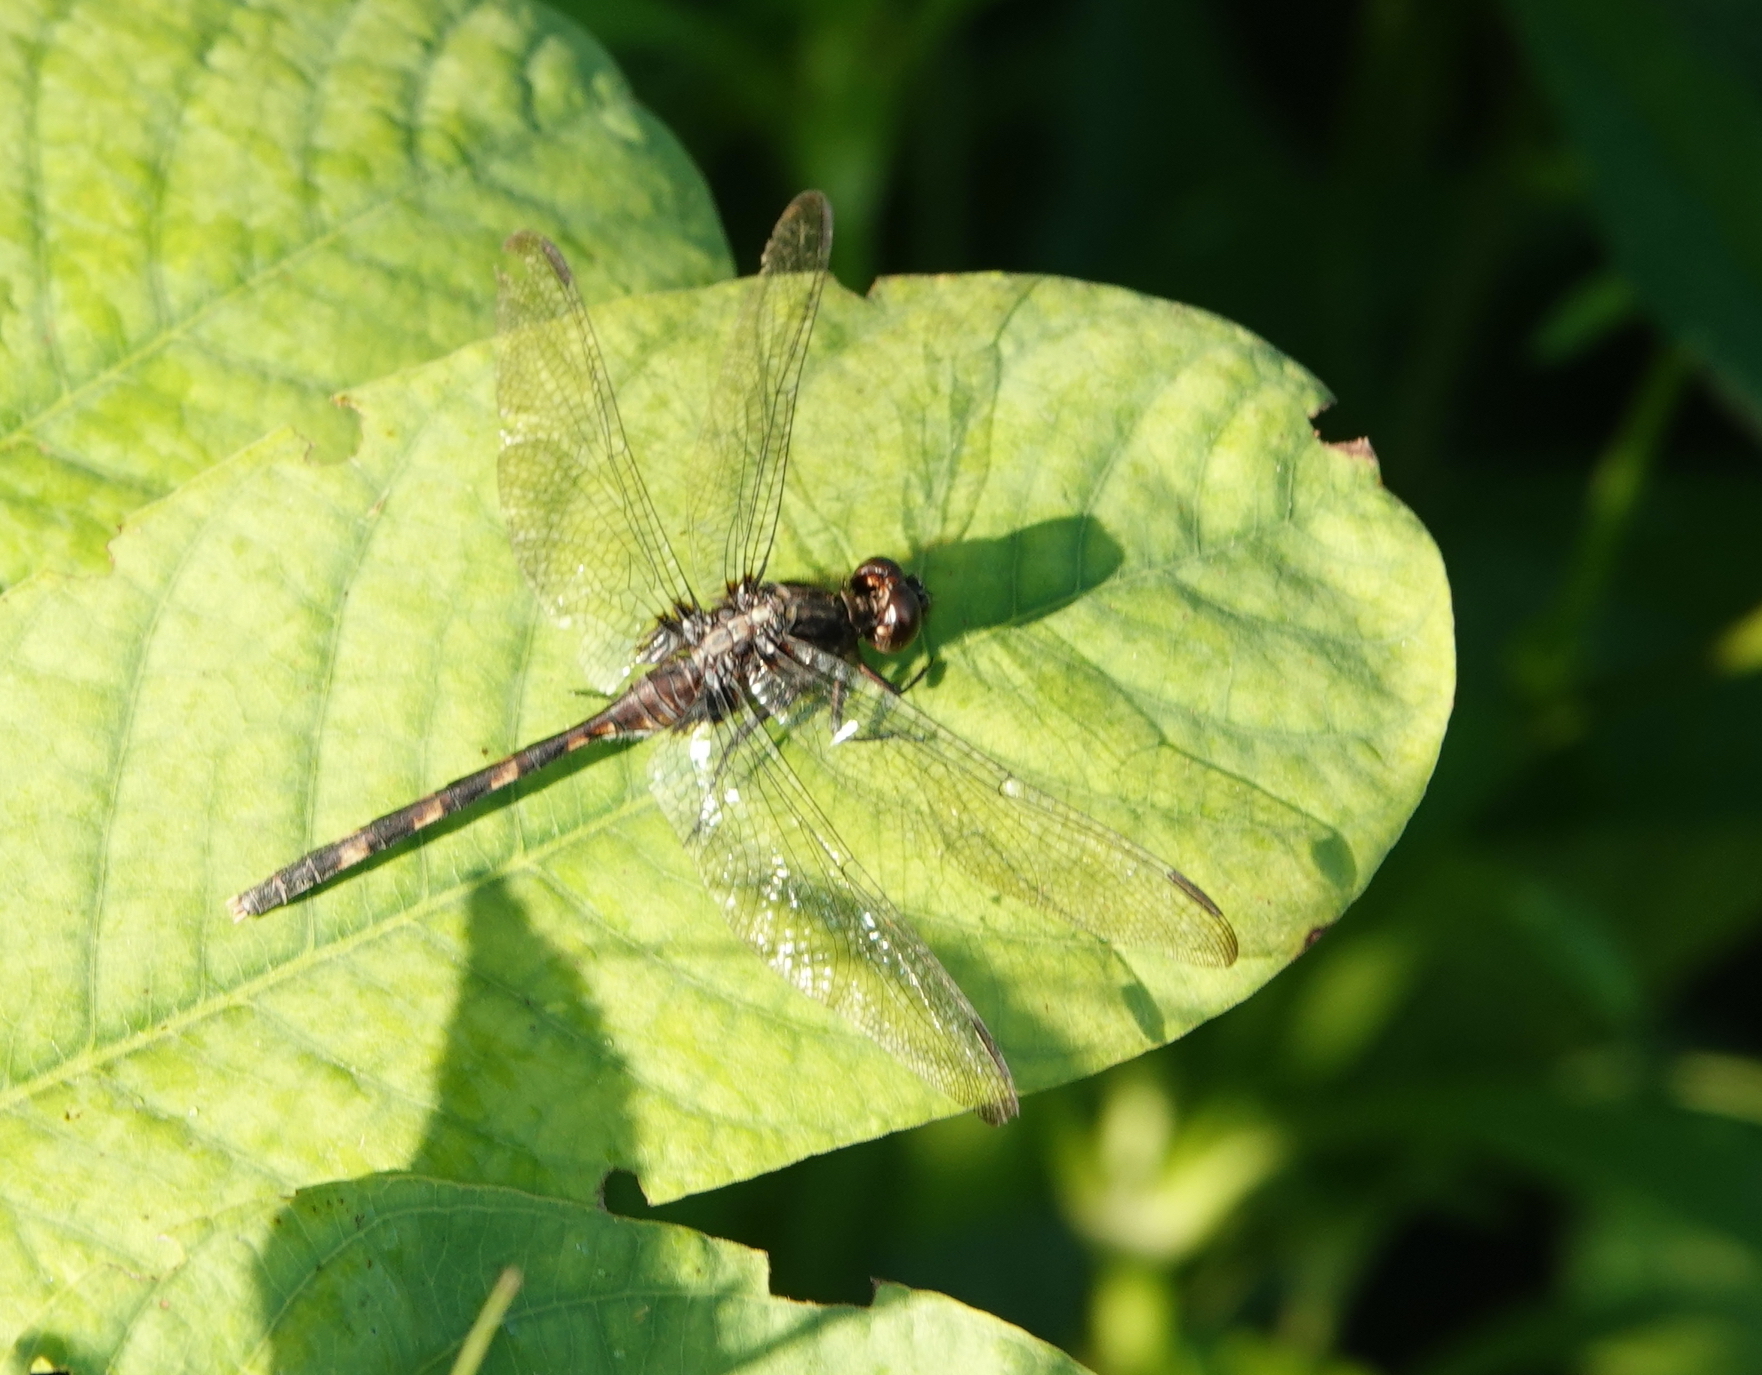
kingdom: Animalia
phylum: Arthropoda
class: Insecta
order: Odonata
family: Libellulidae
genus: Erythemis
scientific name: Erythemis plebeja
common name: Pin-tailed pondhawk
